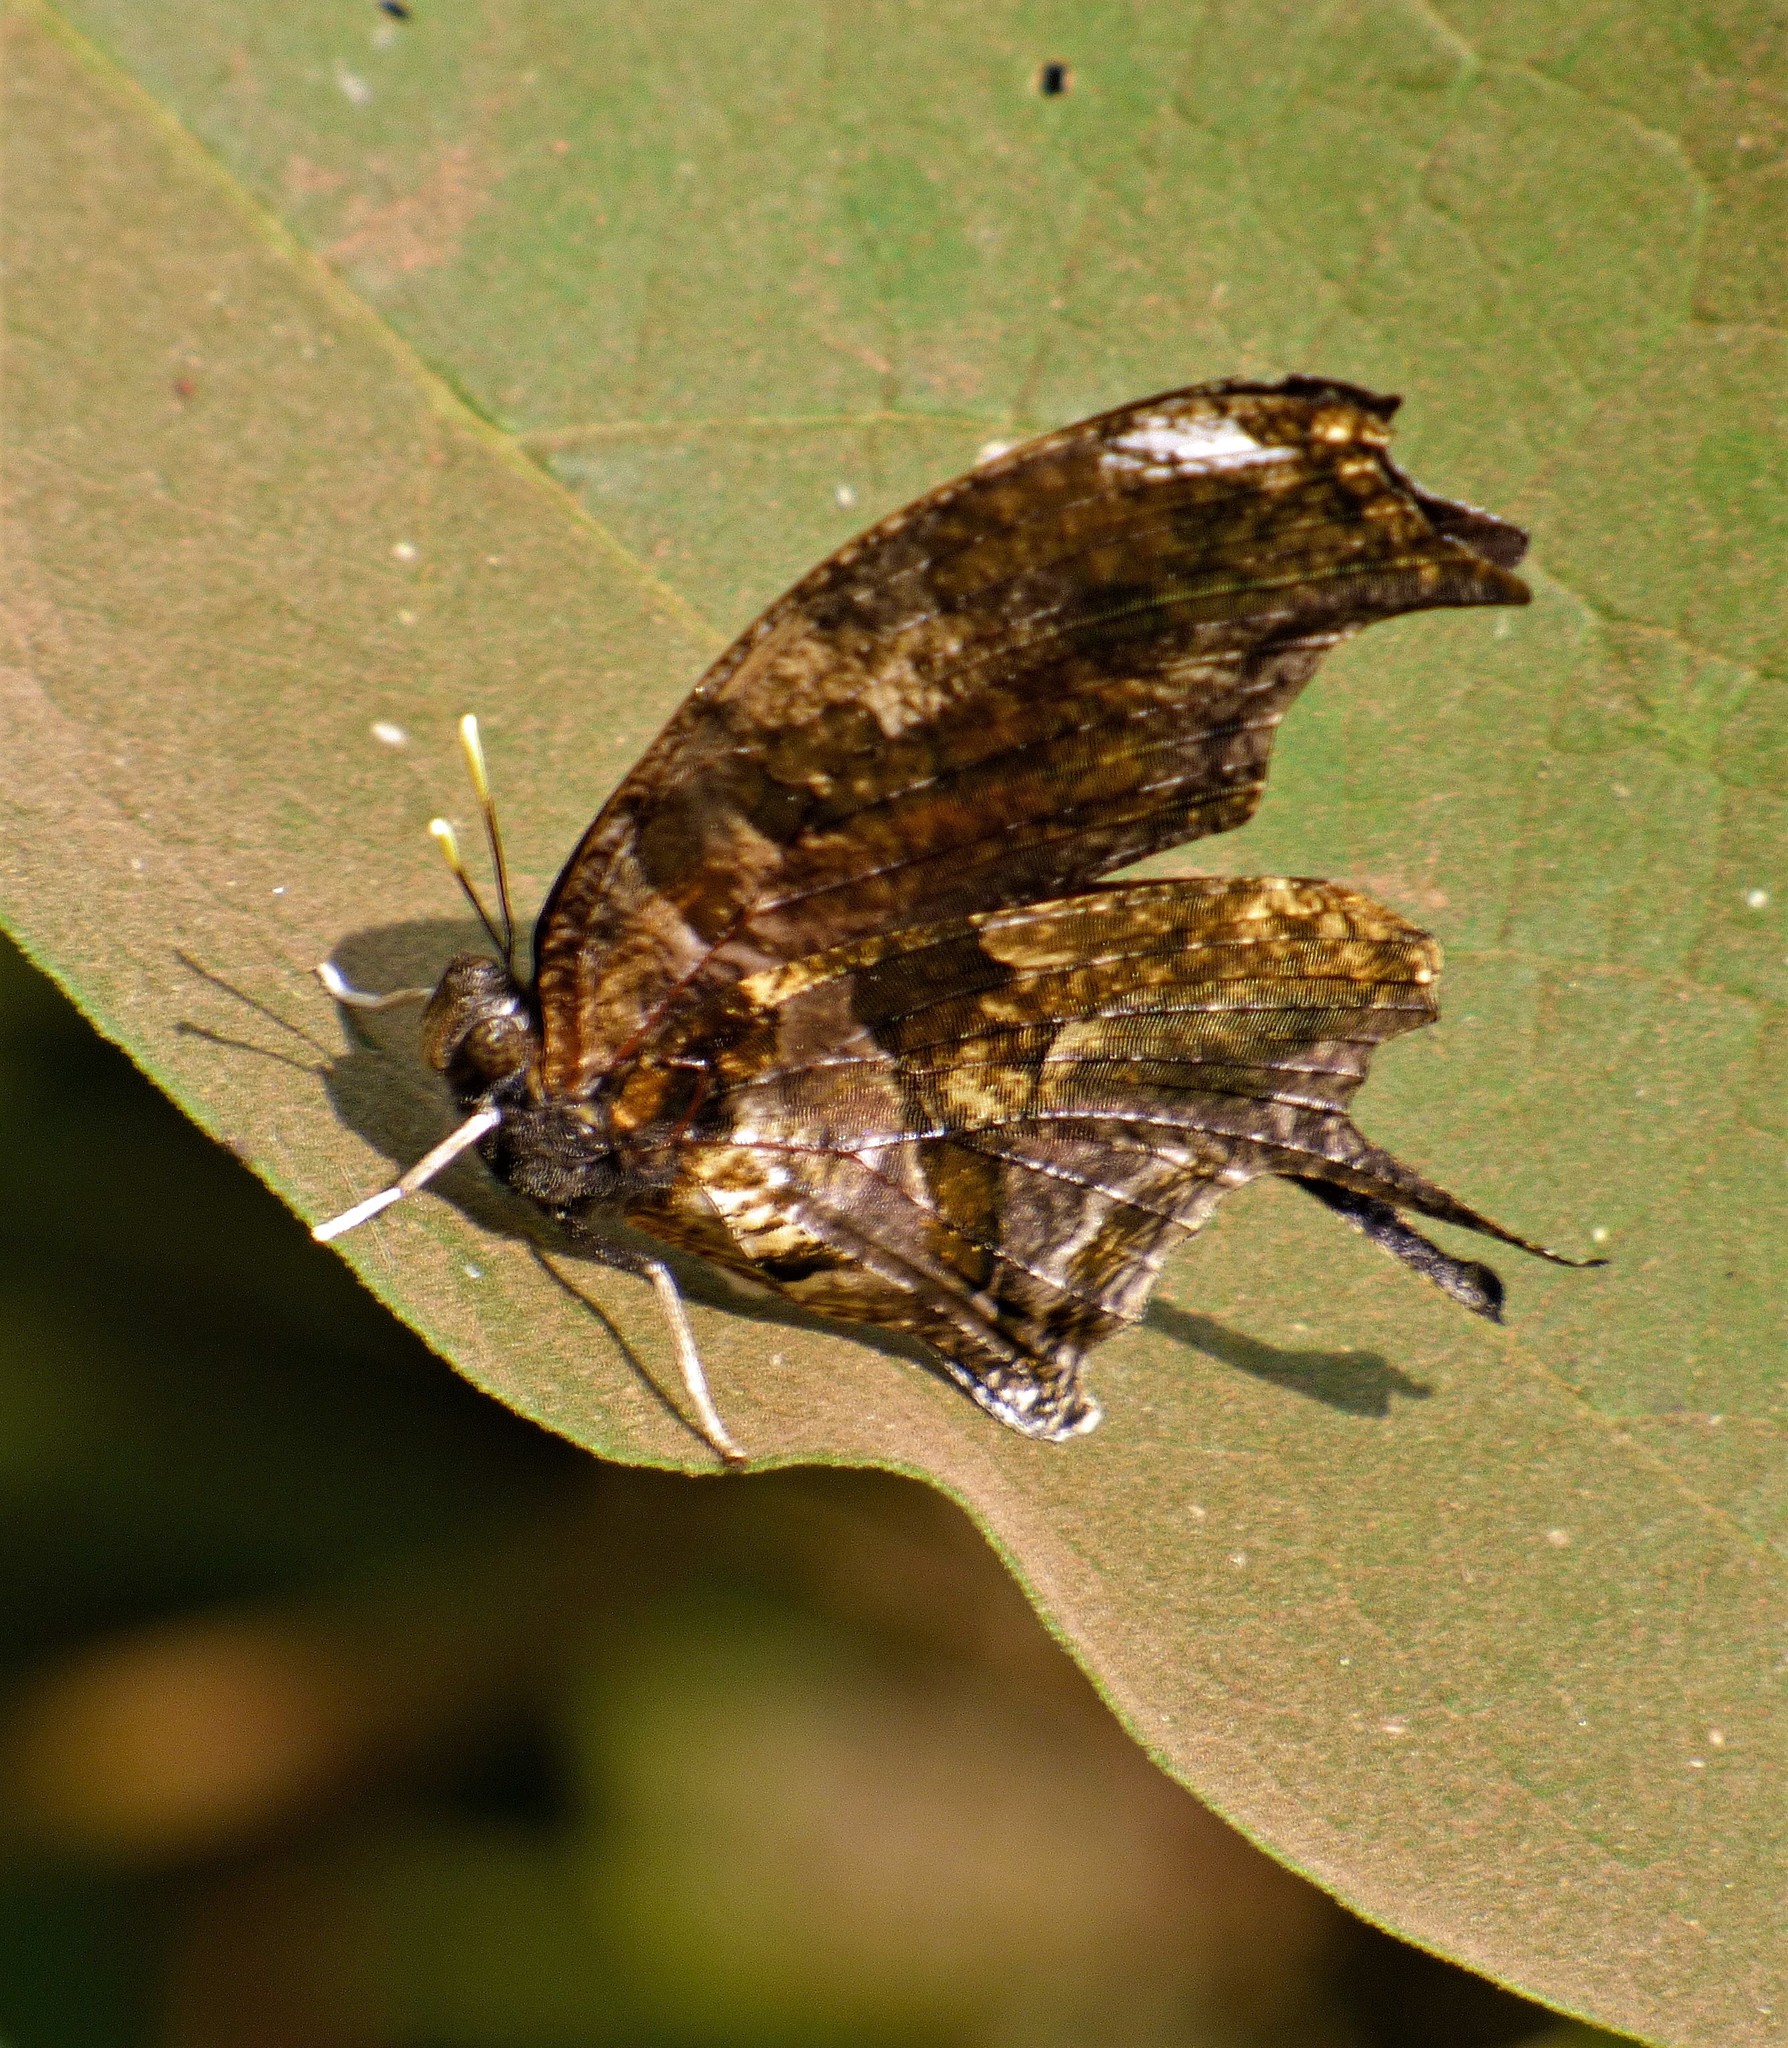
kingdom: Animalia
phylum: Arthropoda
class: Insecta
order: Lepidoptera
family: Nymphalidae
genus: Consul
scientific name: Consul fabius
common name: Tiger leafwing
